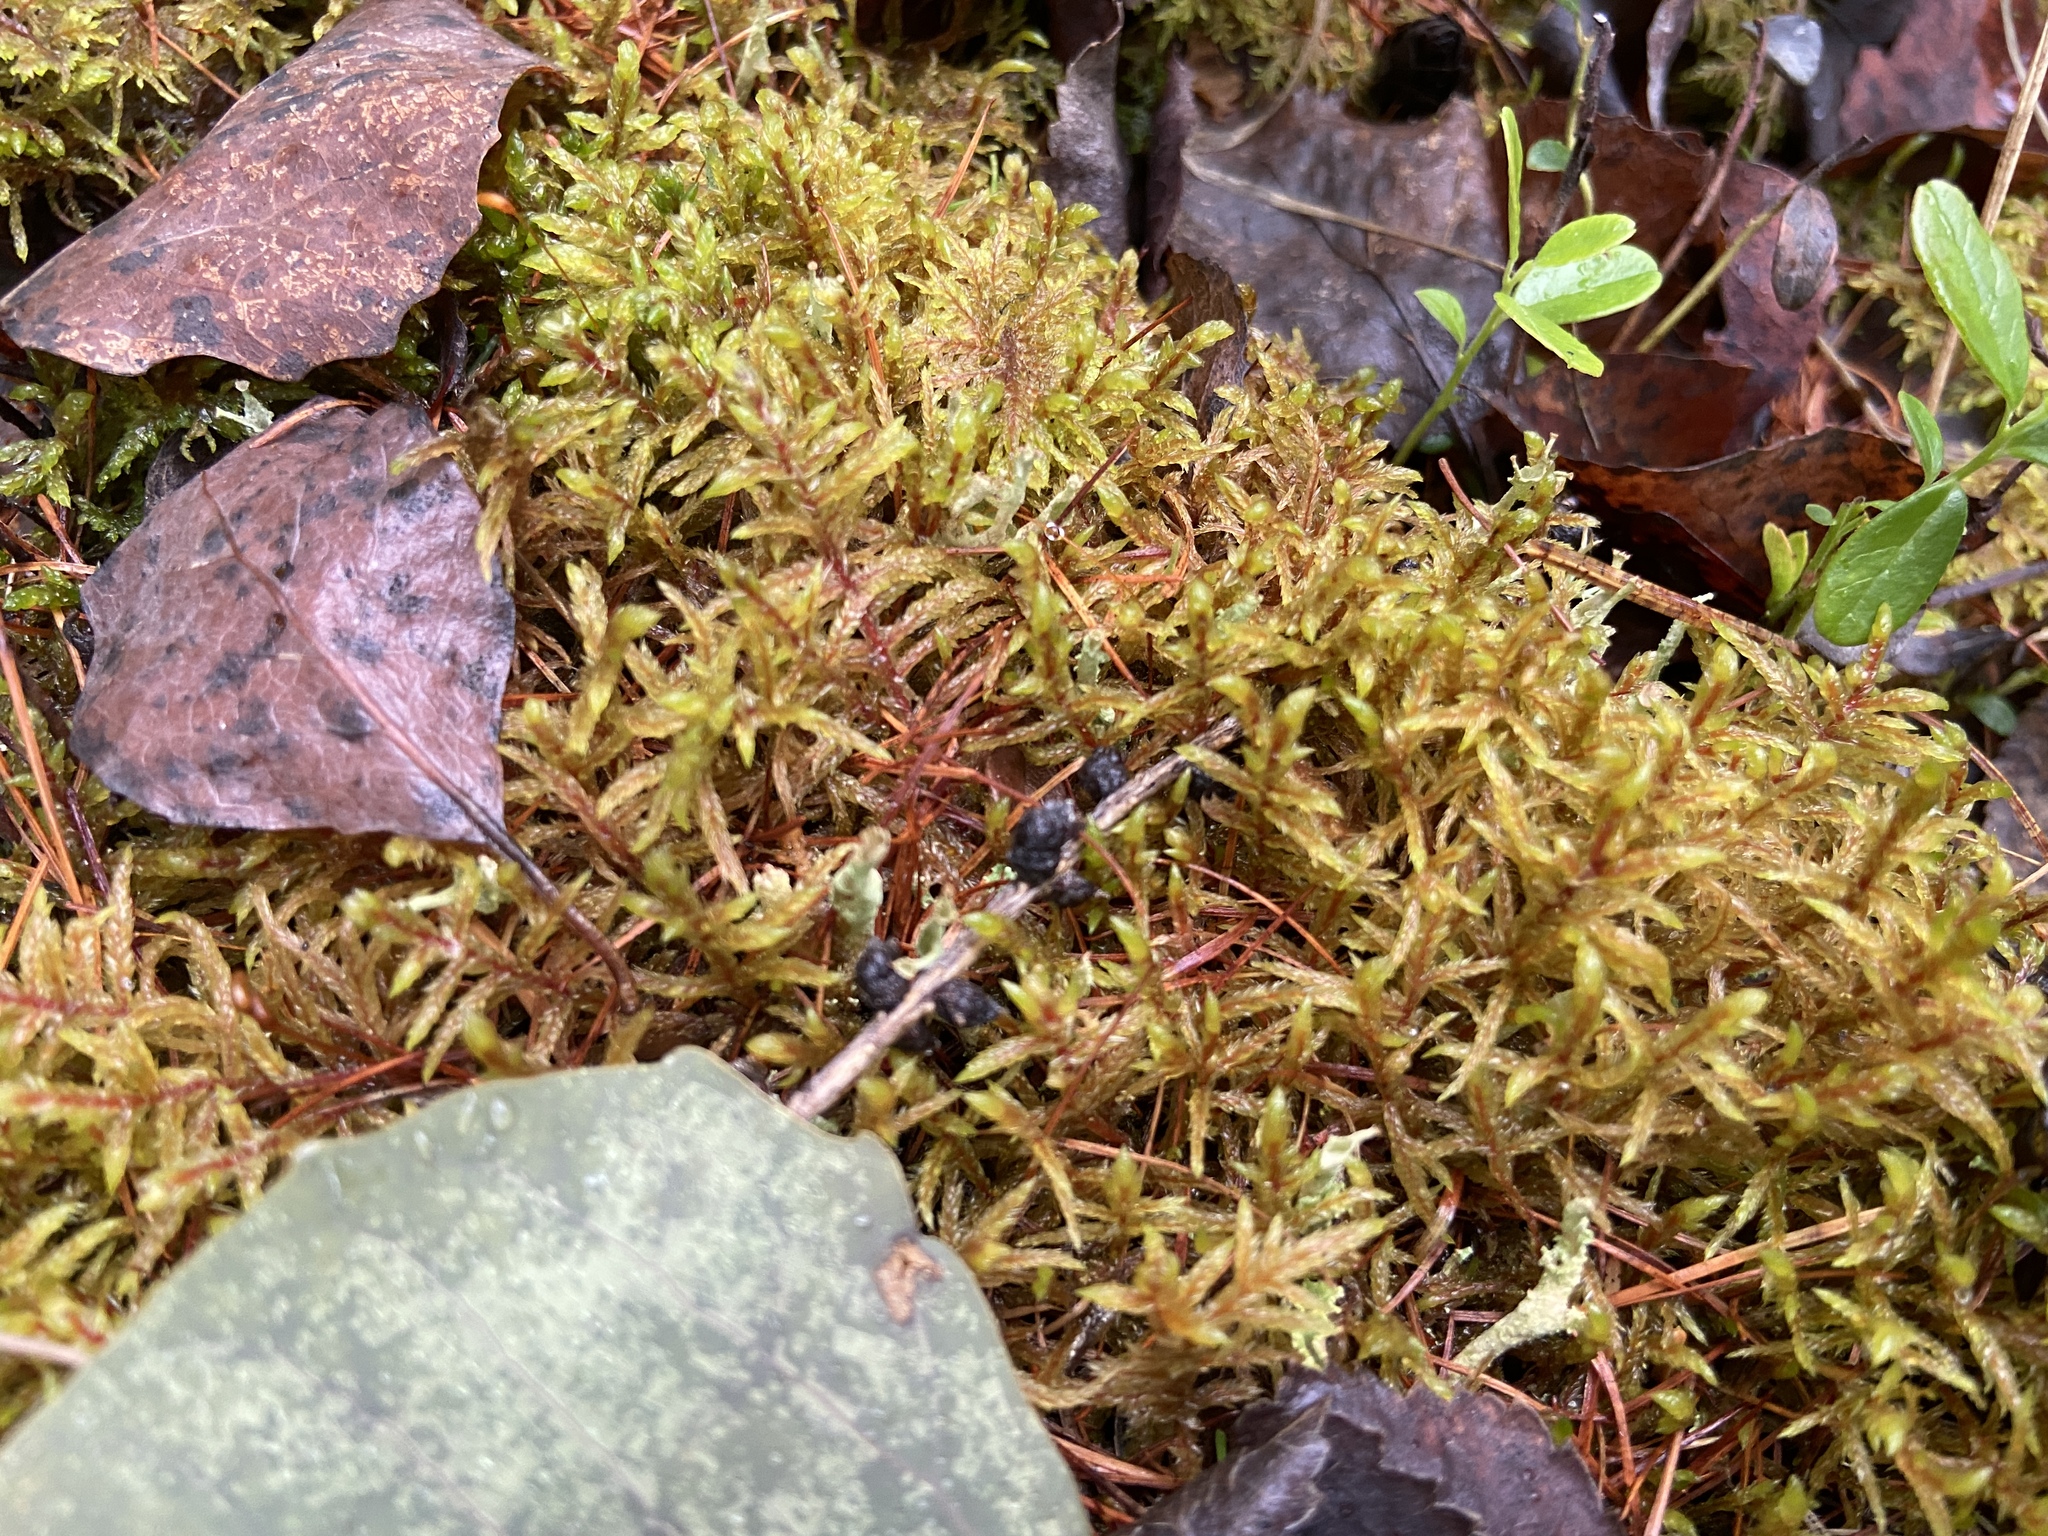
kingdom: Plantae
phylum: Bryophyta
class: Bryopsida
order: Hypnales
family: Hylocomiaceae
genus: Pleurozium
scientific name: Pleurozium schreberi
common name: Red-stemmed feather moss
